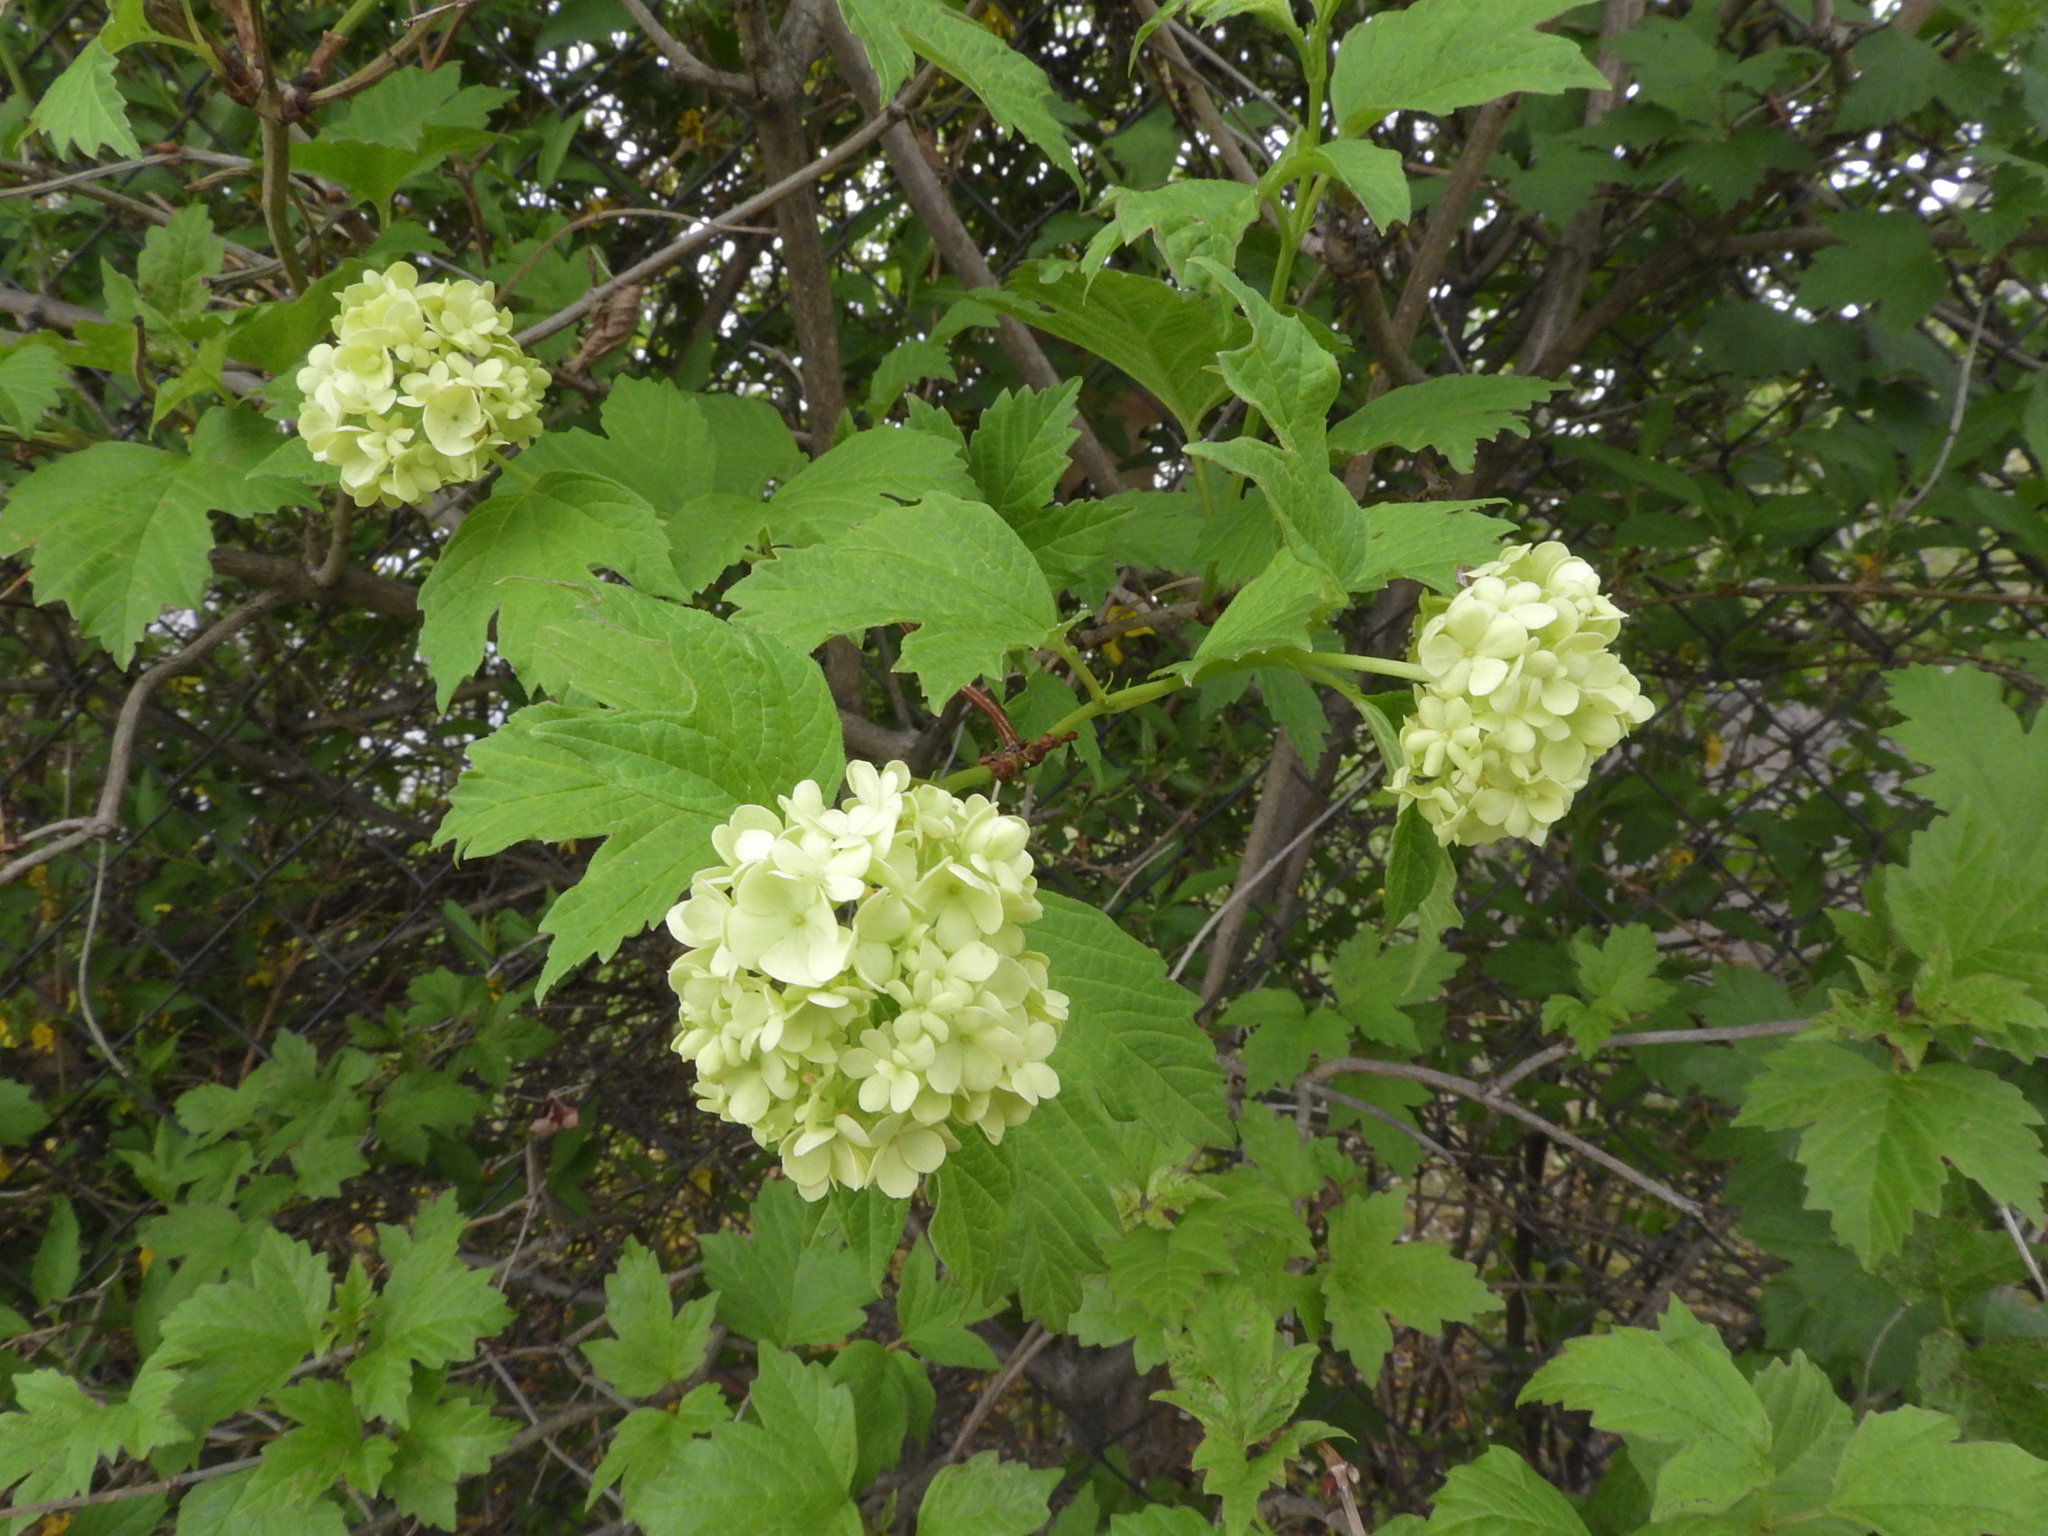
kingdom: Plantae
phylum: Tracheophyta
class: Magnoliopsida
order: Dipsacales
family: Viburnaceae
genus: Viburnum
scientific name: Viburnum opulus
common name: Guelder-rose
